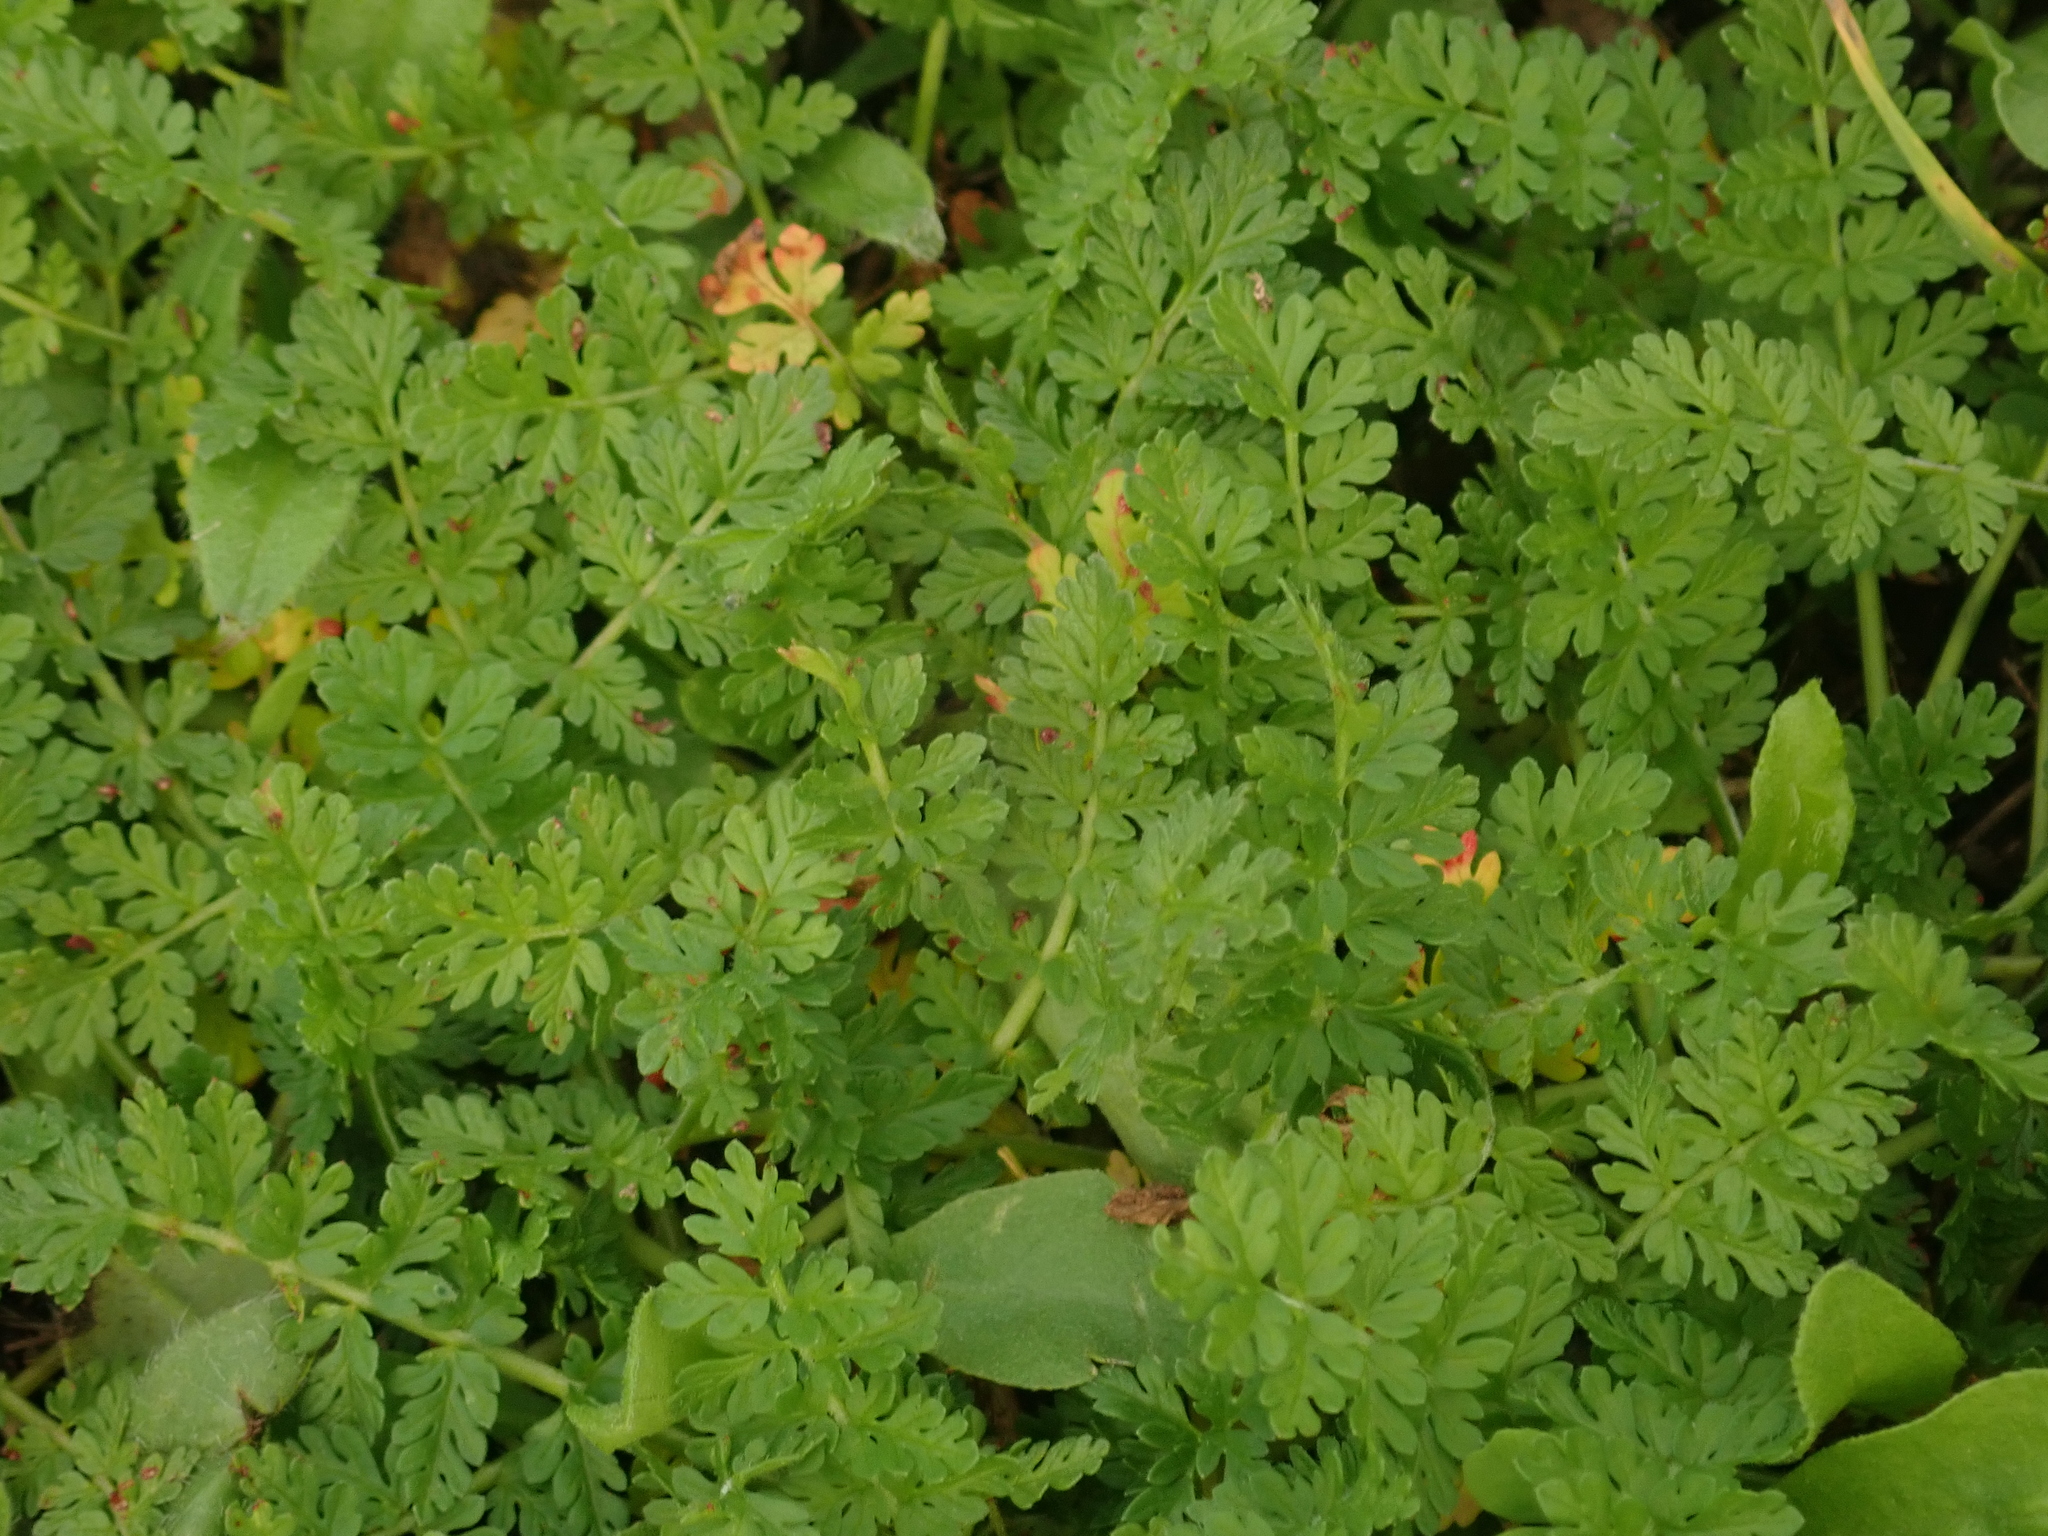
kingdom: Plantae
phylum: Tracheophyta
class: Magnoliopsida
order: Geraniales
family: Geraniaceae
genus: Erodium
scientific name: Erodium cicutarium
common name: Common stork's-bill
